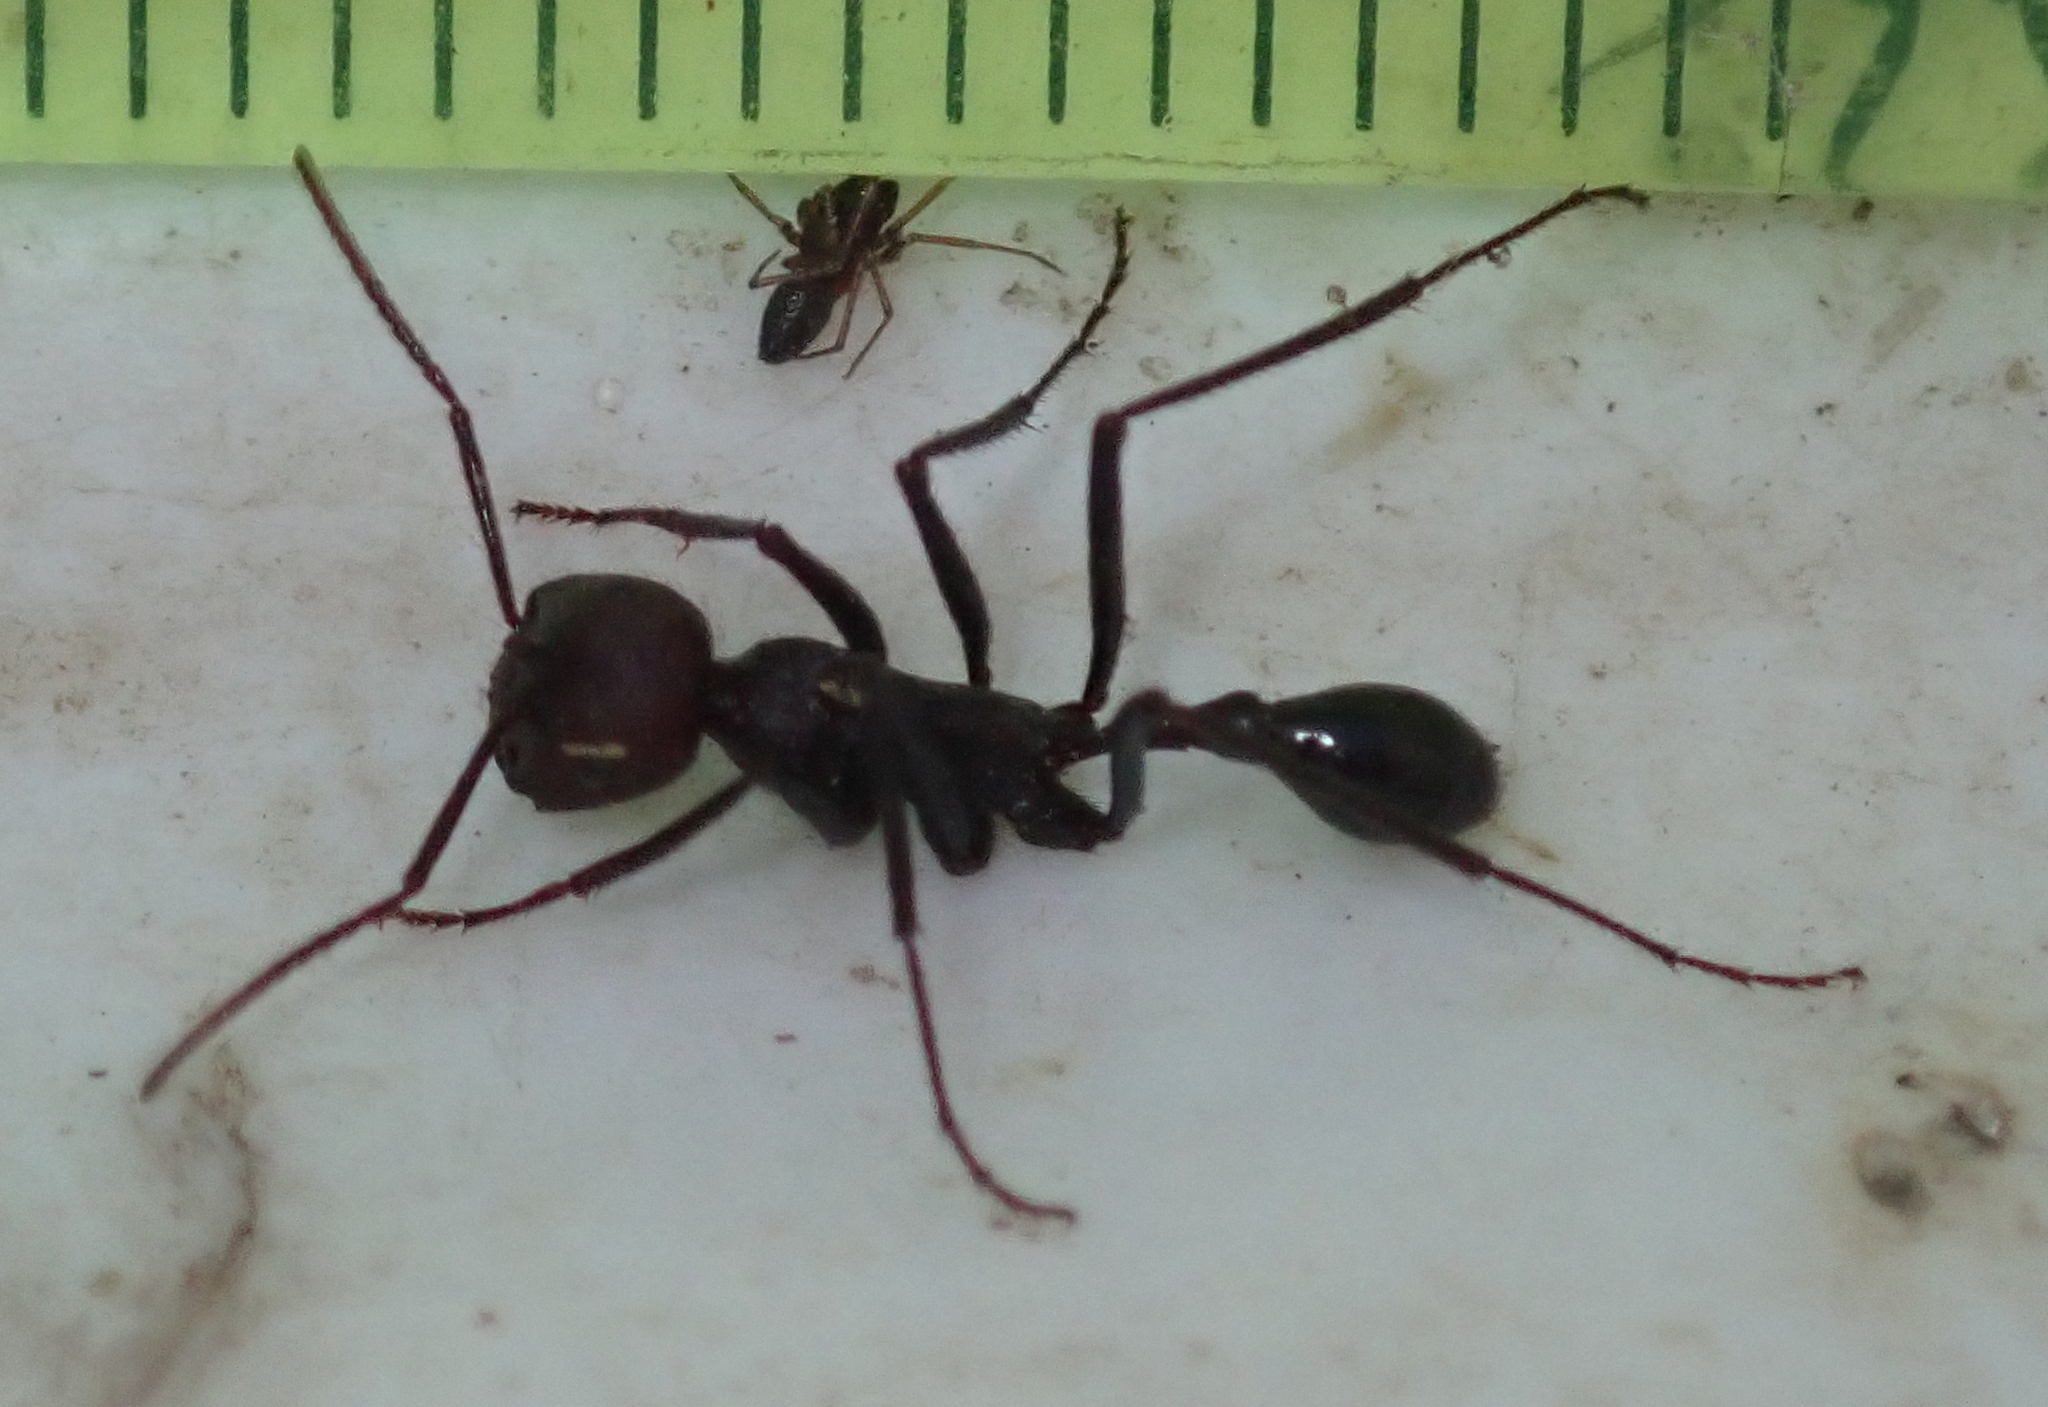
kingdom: Animalia
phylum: Arthropoda
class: Insecta
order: Hymenoptera
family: Formicidae
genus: Ocymyrmex
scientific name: Ocymyrmex sphinx
